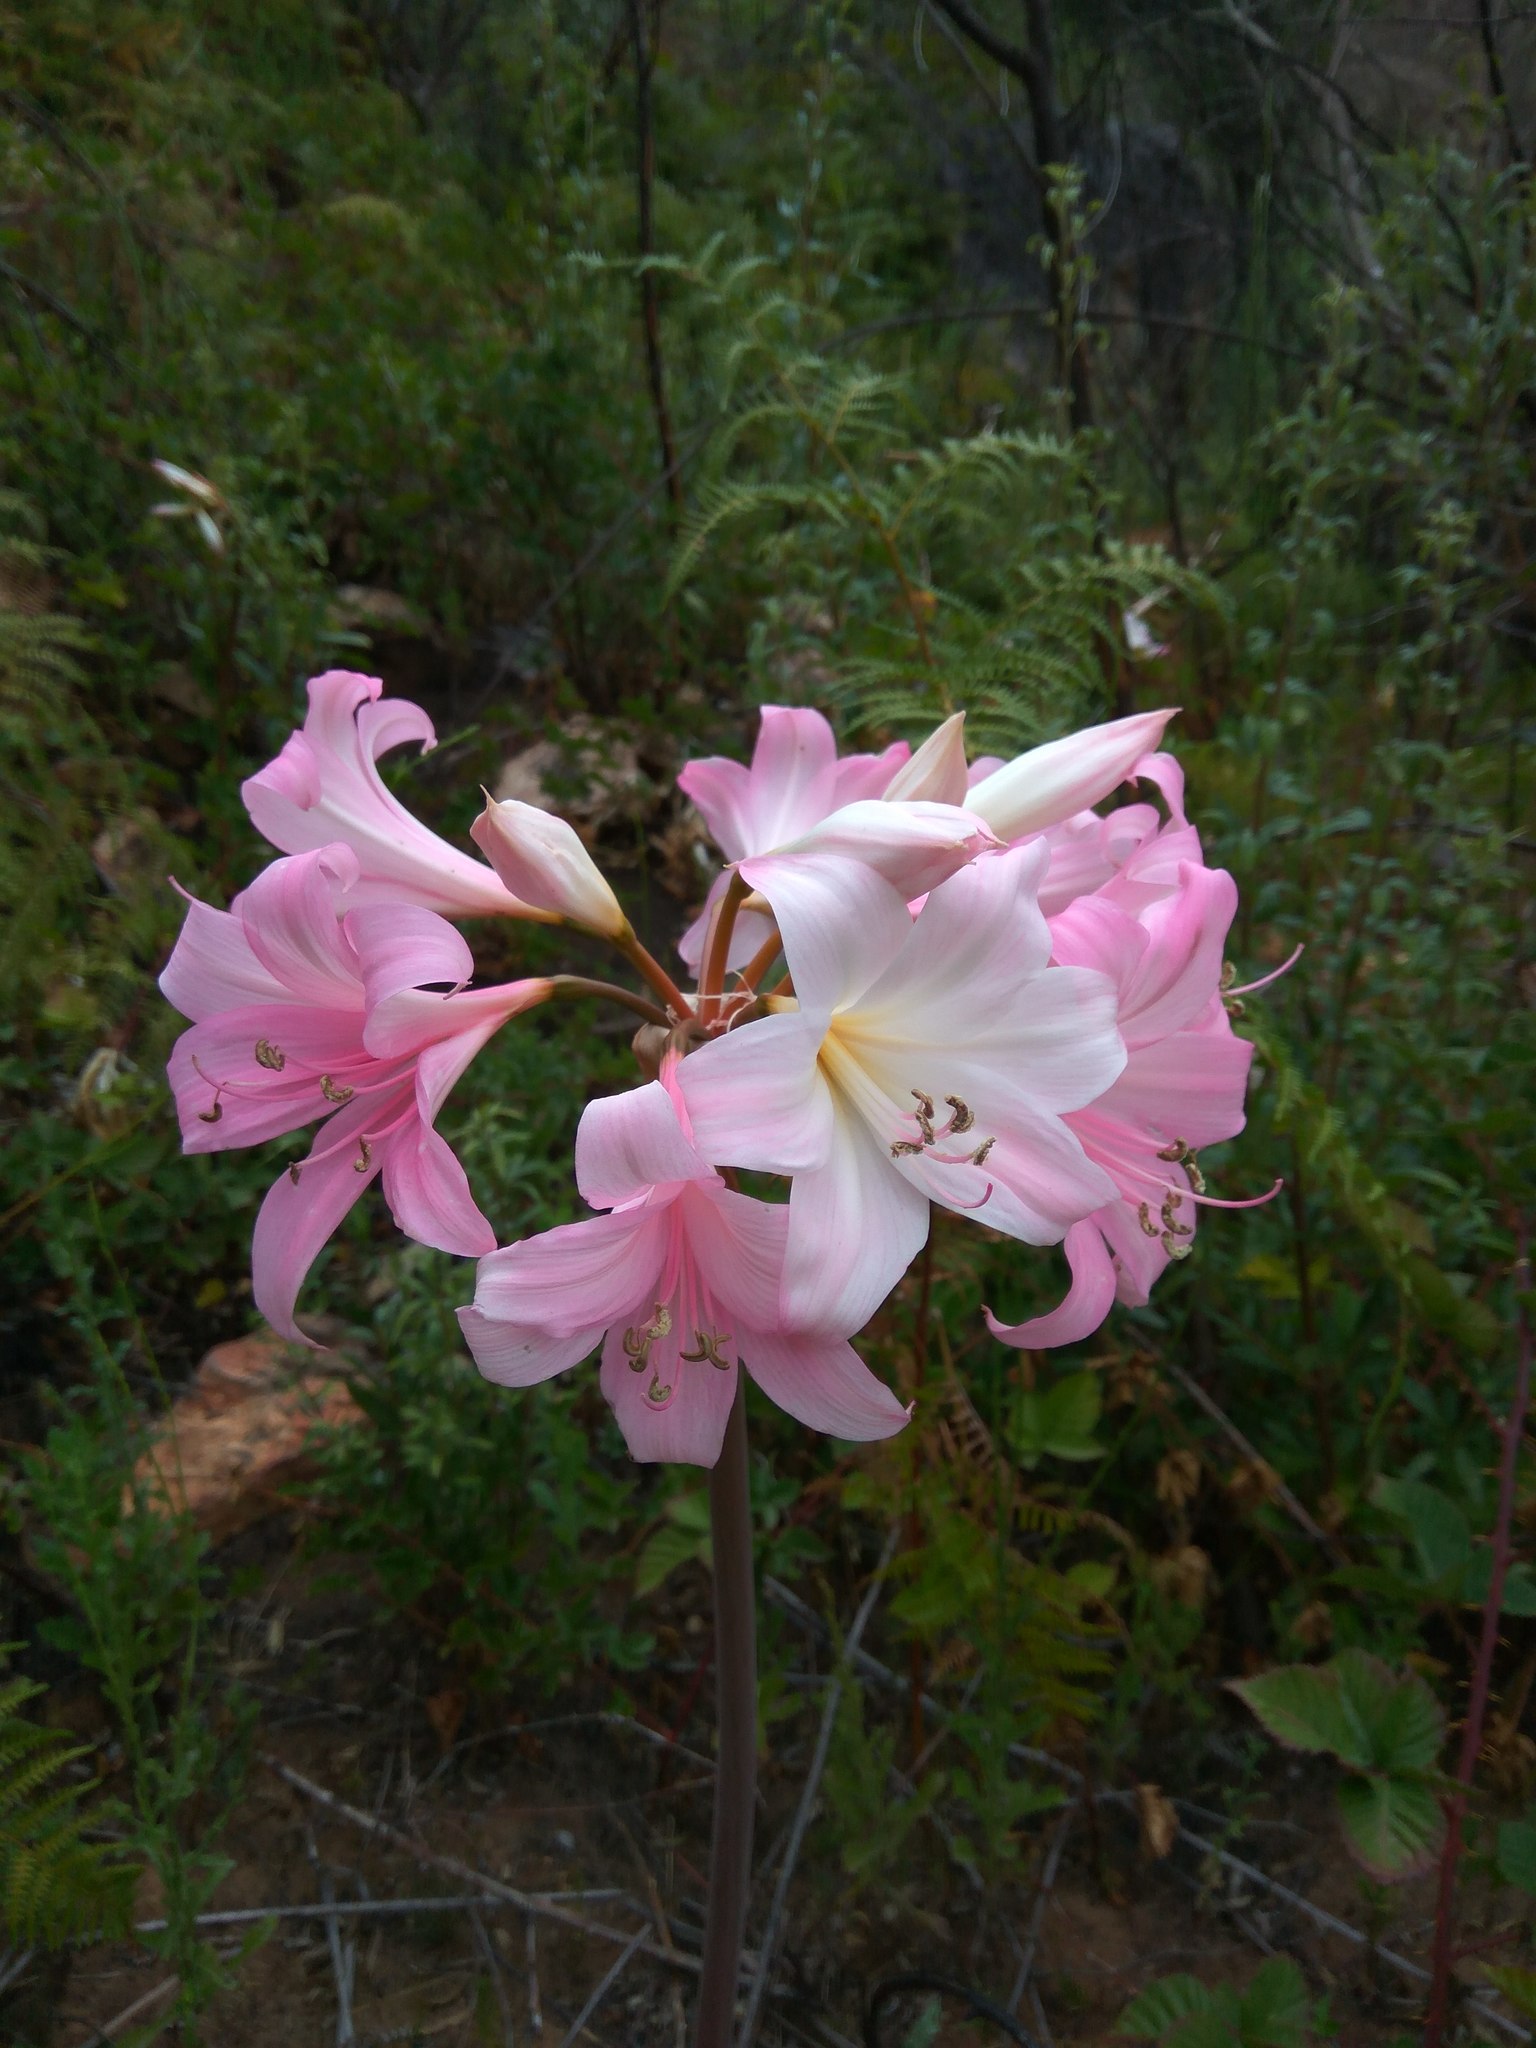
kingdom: Plantae
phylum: Tracheophyta
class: Liliopsida
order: Asparagales
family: Amaryllidaceae
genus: Amaryllis
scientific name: Amaryllis belladonna
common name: Jersey lily
